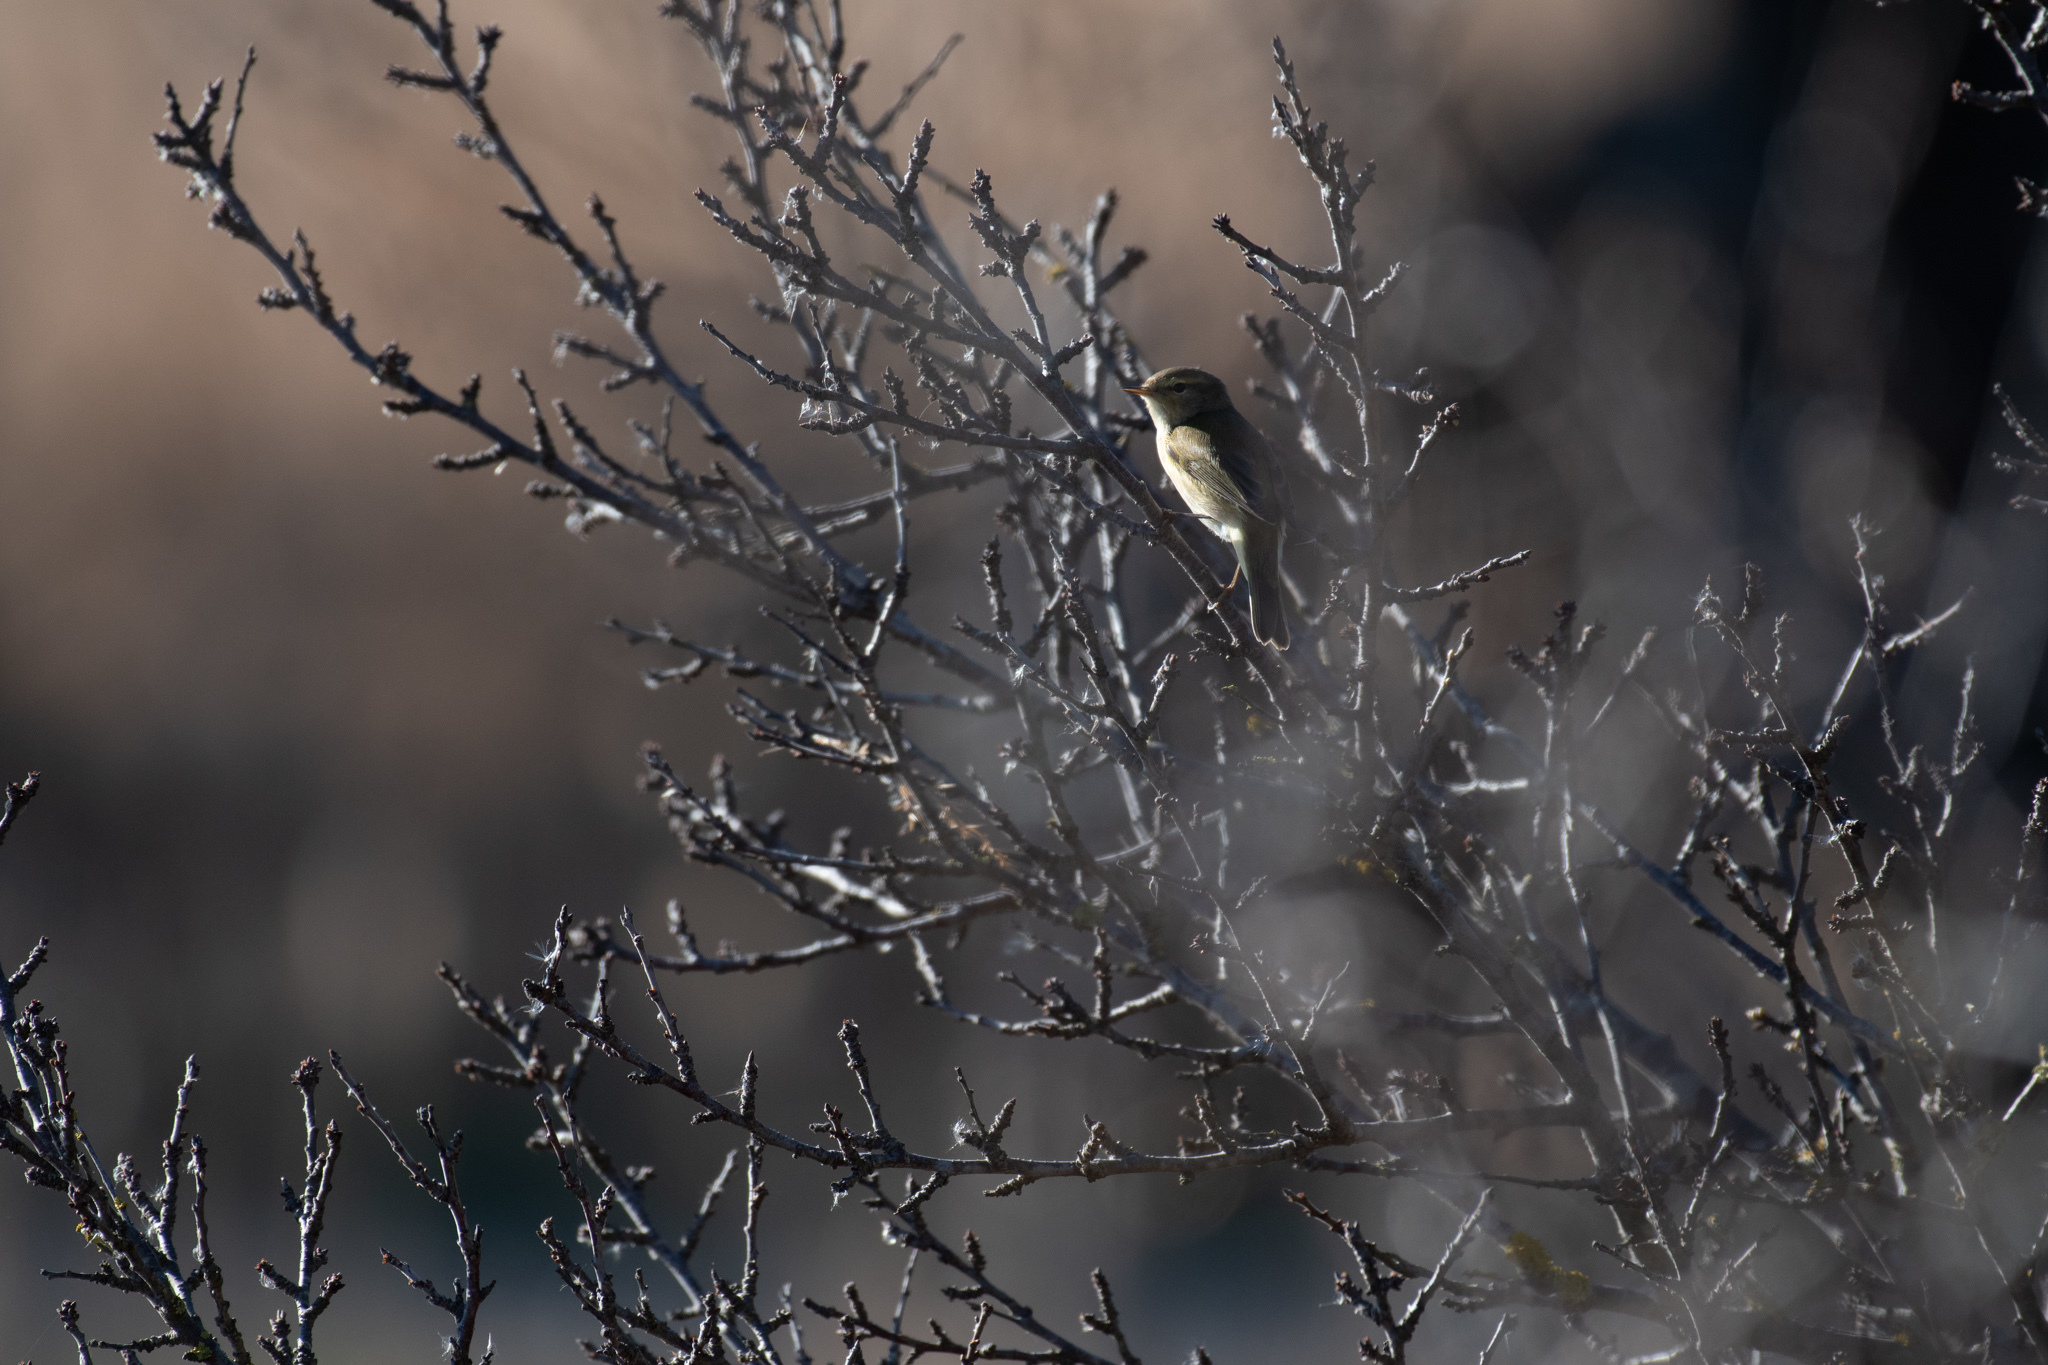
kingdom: Animalia
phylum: Chordata
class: Aves
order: Passeriformes
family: Phylloscopidae
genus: Phylloscopus
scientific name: Phylloscopus collybita
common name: Common chiffchaff
